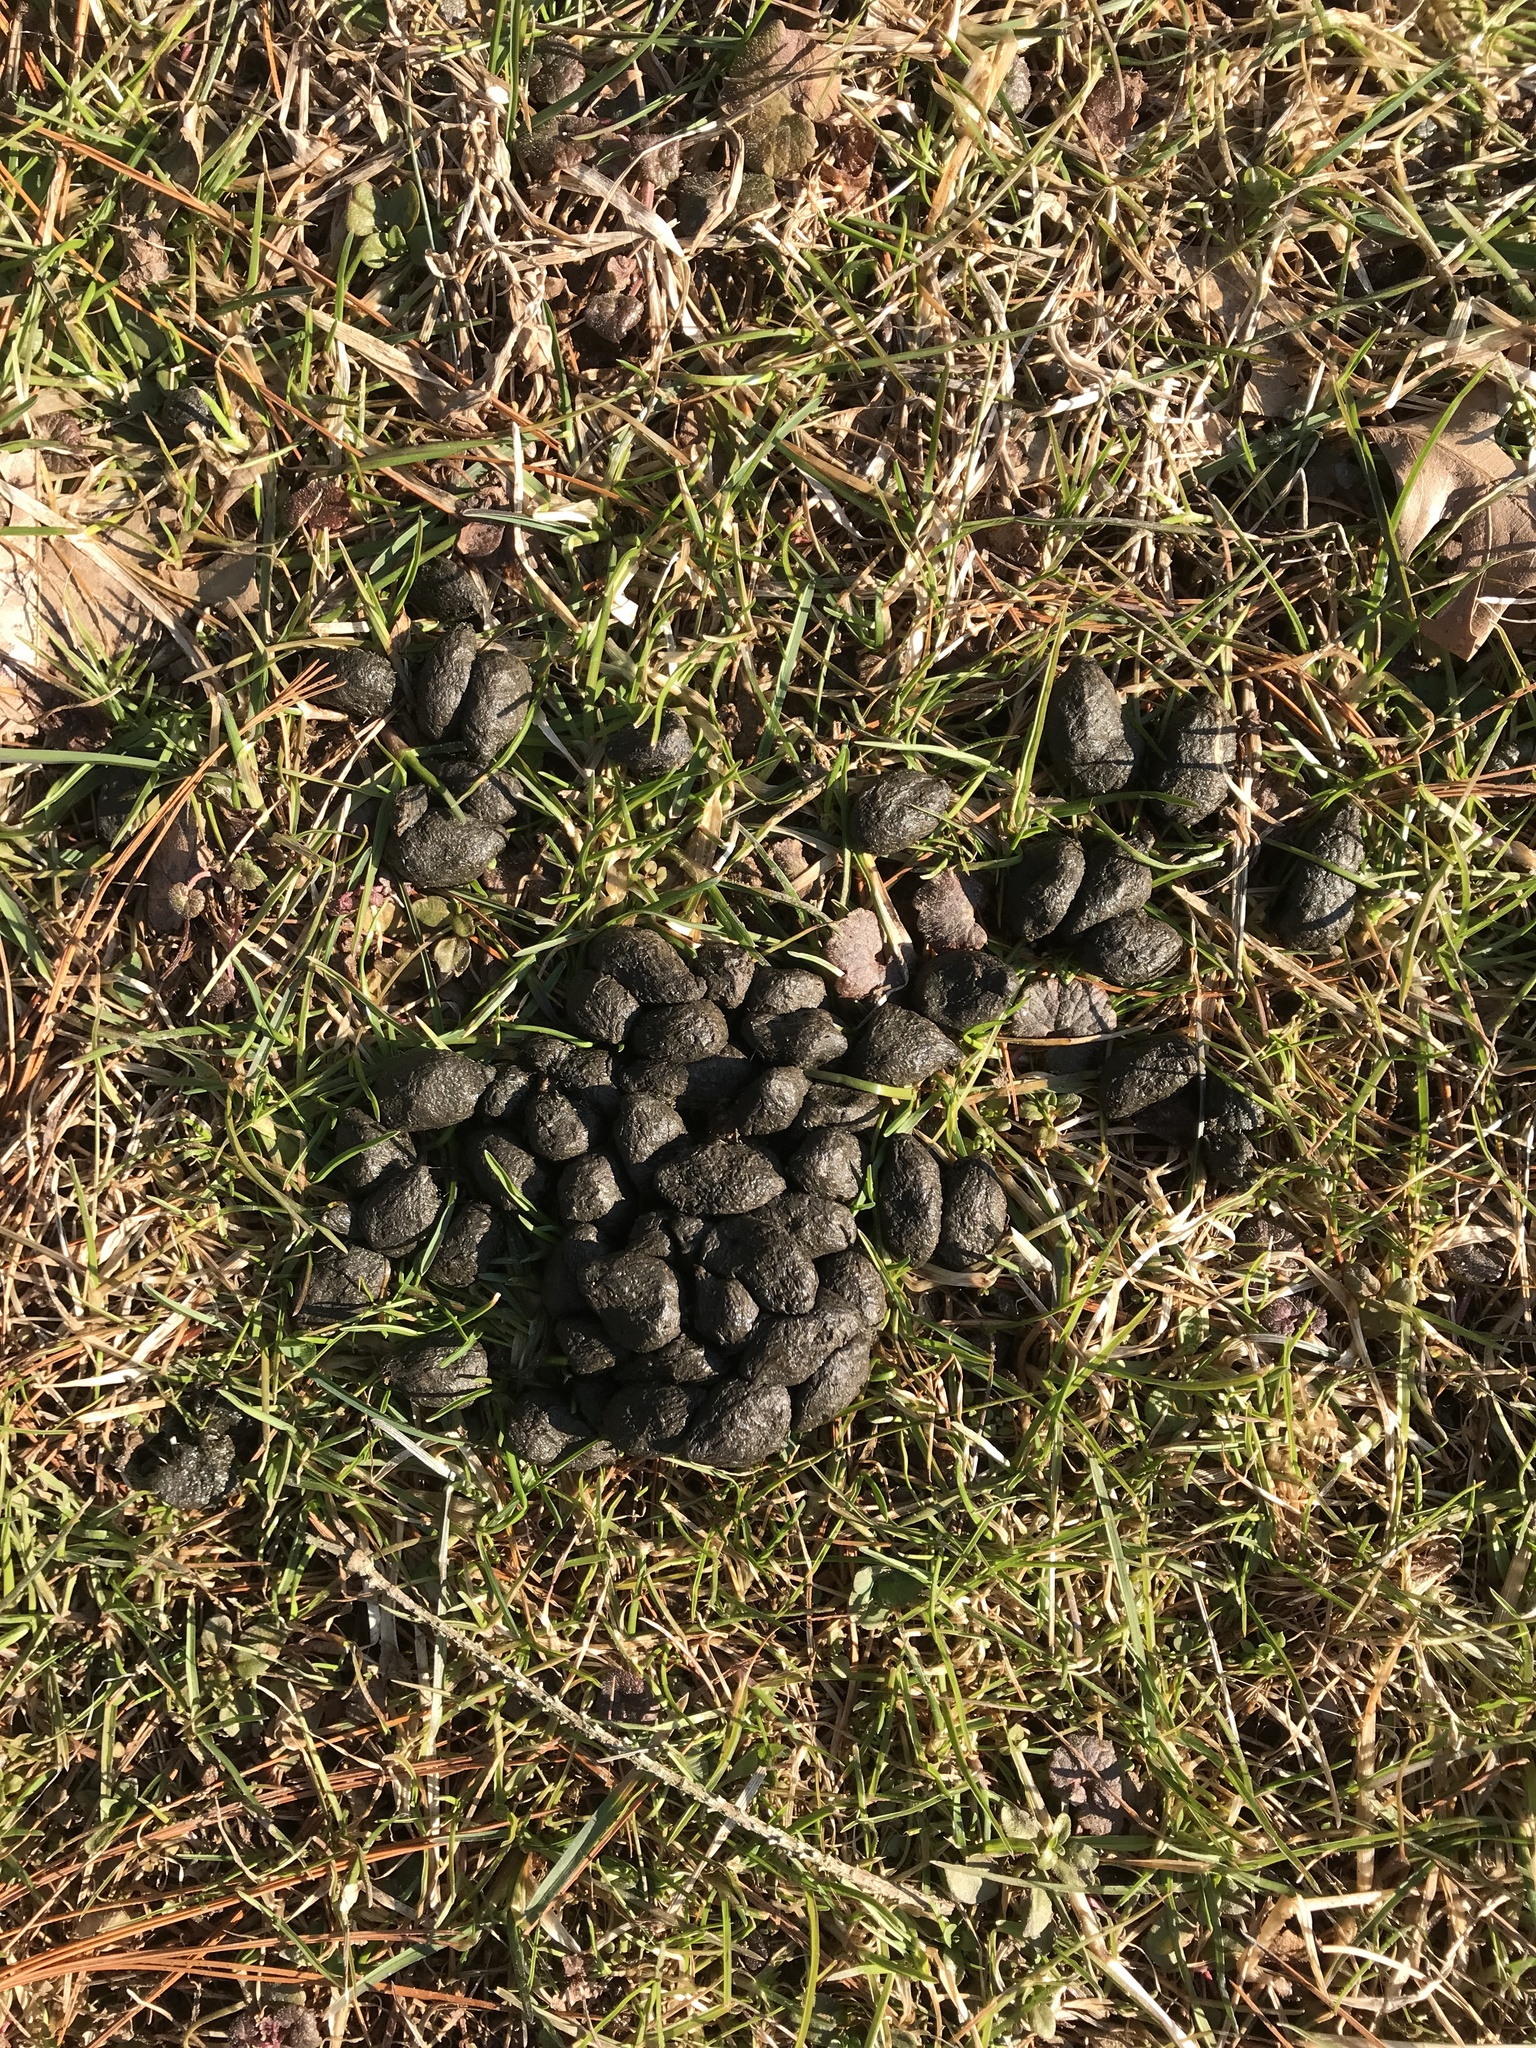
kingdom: Animalia
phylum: Chordata
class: Mammalia
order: Artiodactyla
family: Cervidae
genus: Odocoileus
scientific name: Odocoileus virginianus
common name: White-tailed deer
